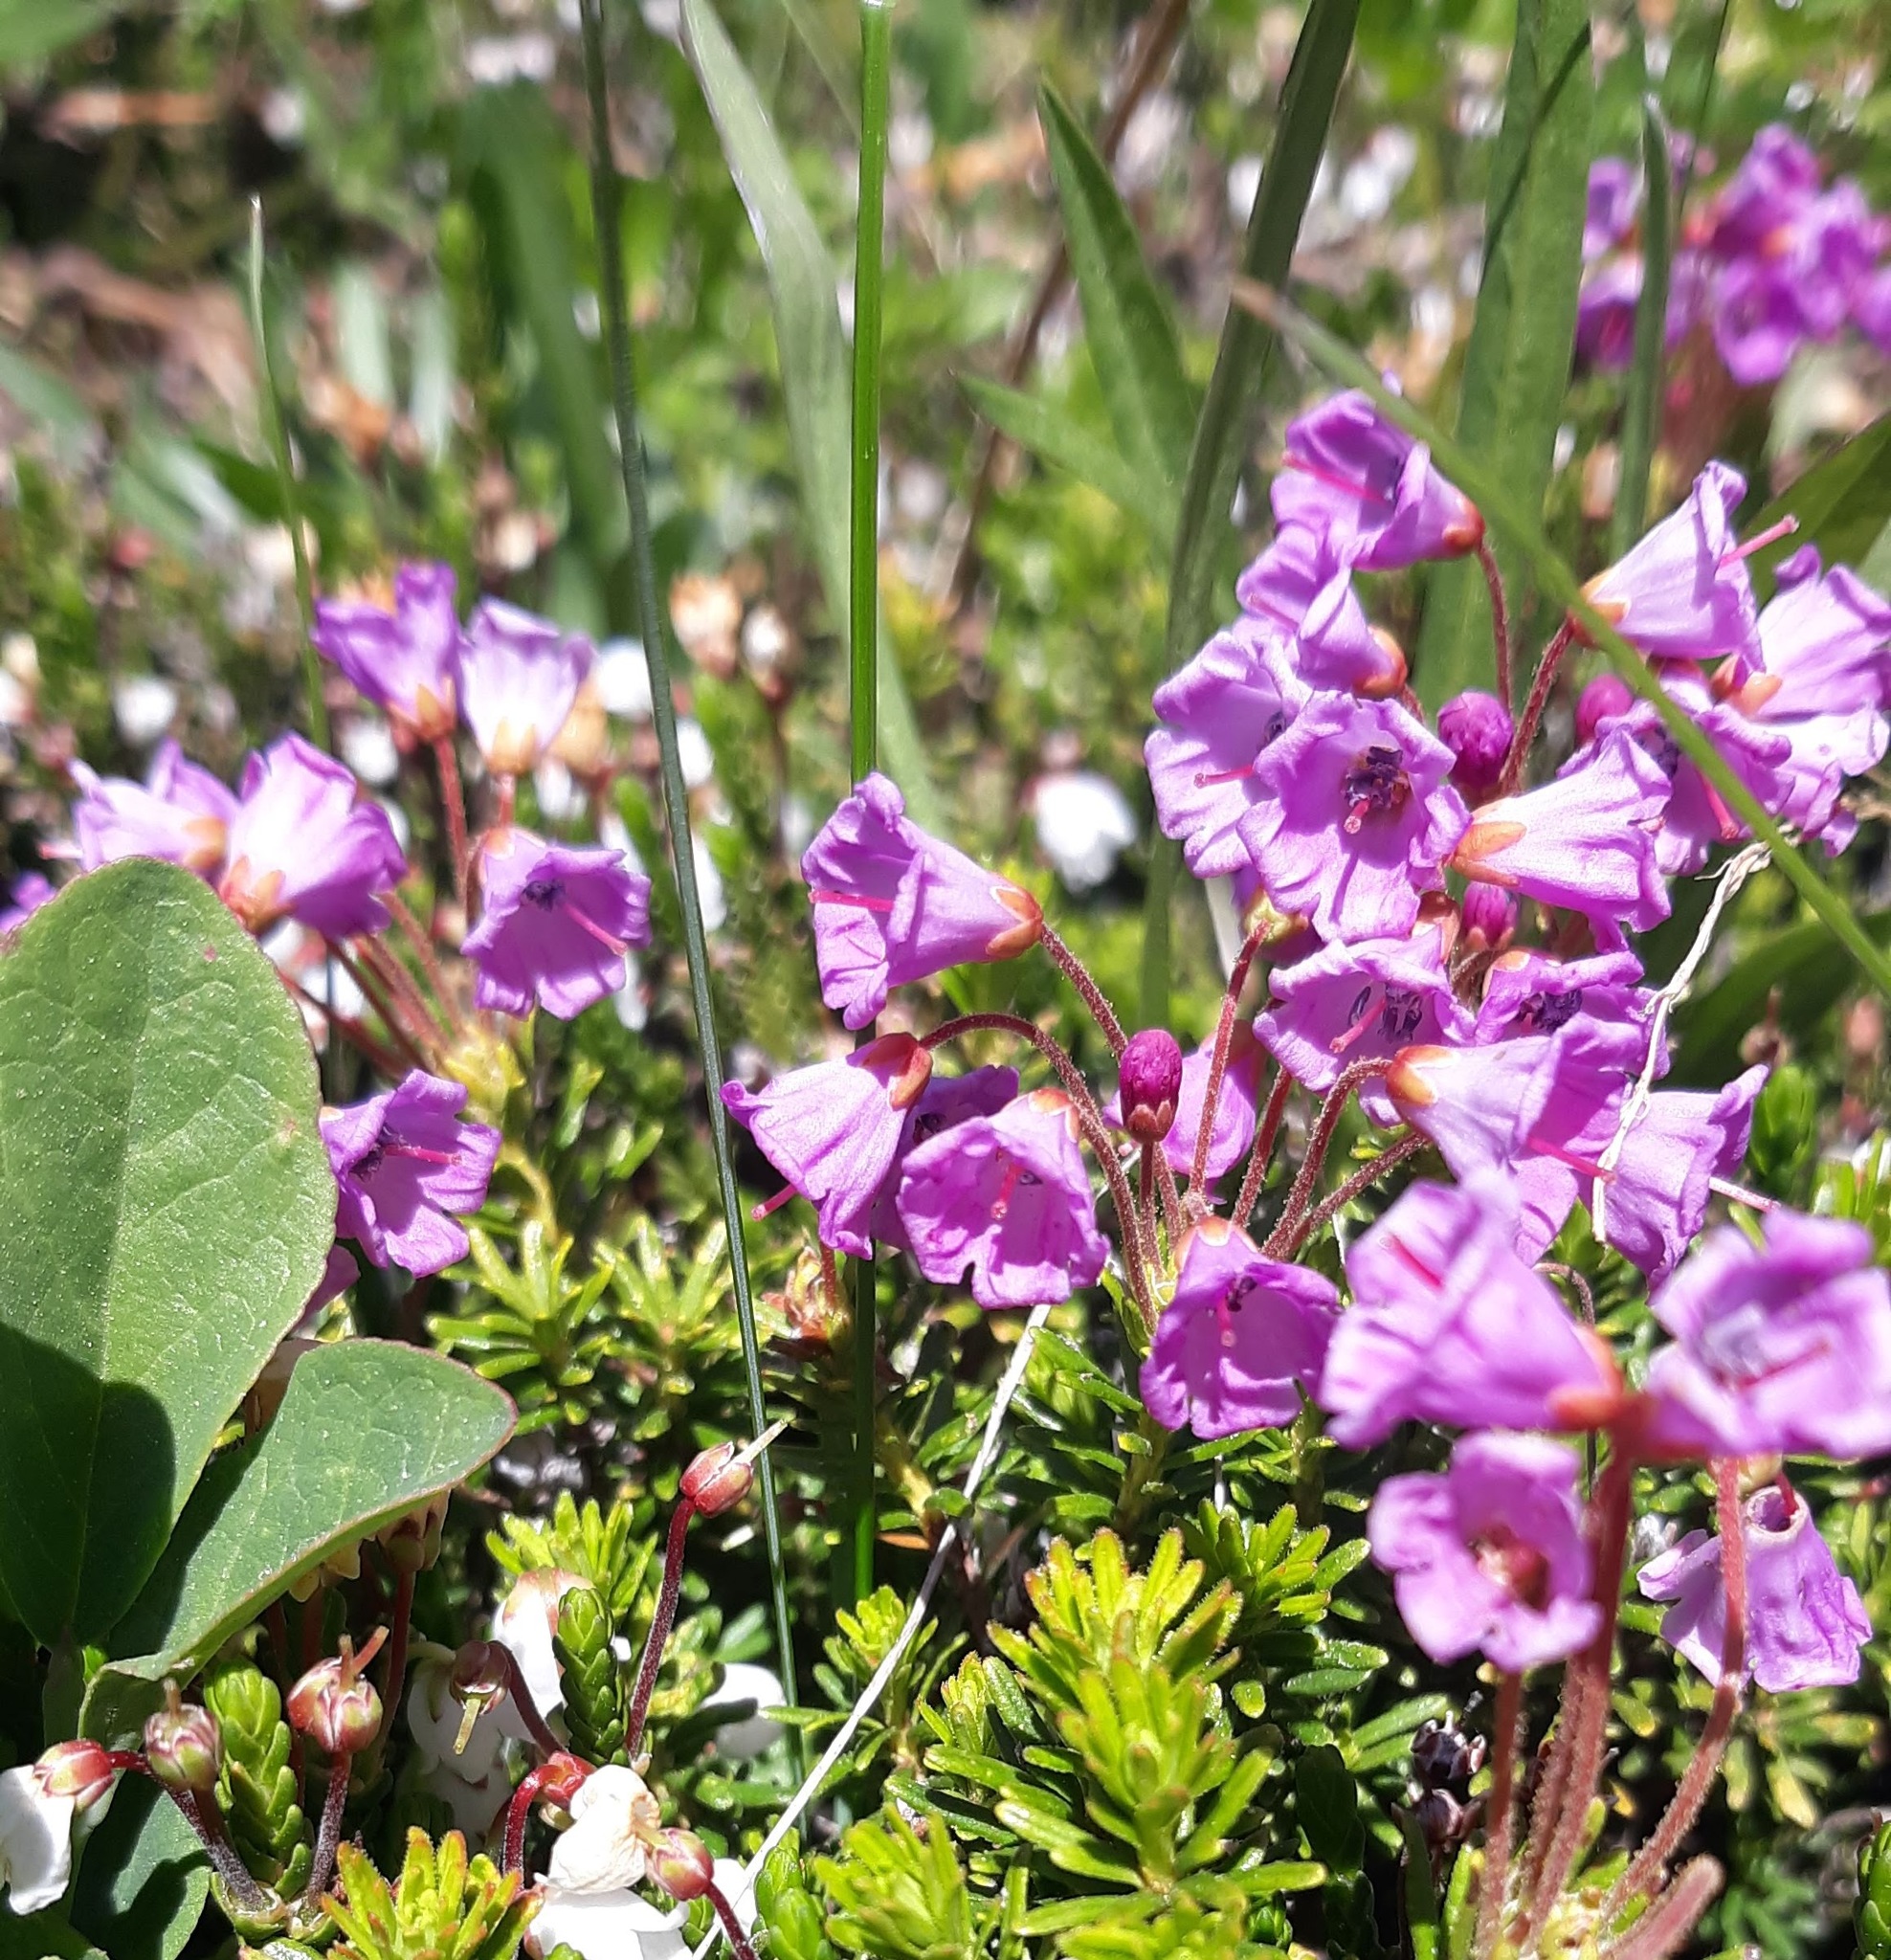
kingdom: Plantae
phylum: Tracheophyta
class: Magnoliopsida
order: Ericales
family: Ericaceae
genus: Phyllodoce
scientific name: Phyllodoce empetriformis
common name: Pink mountain heather
